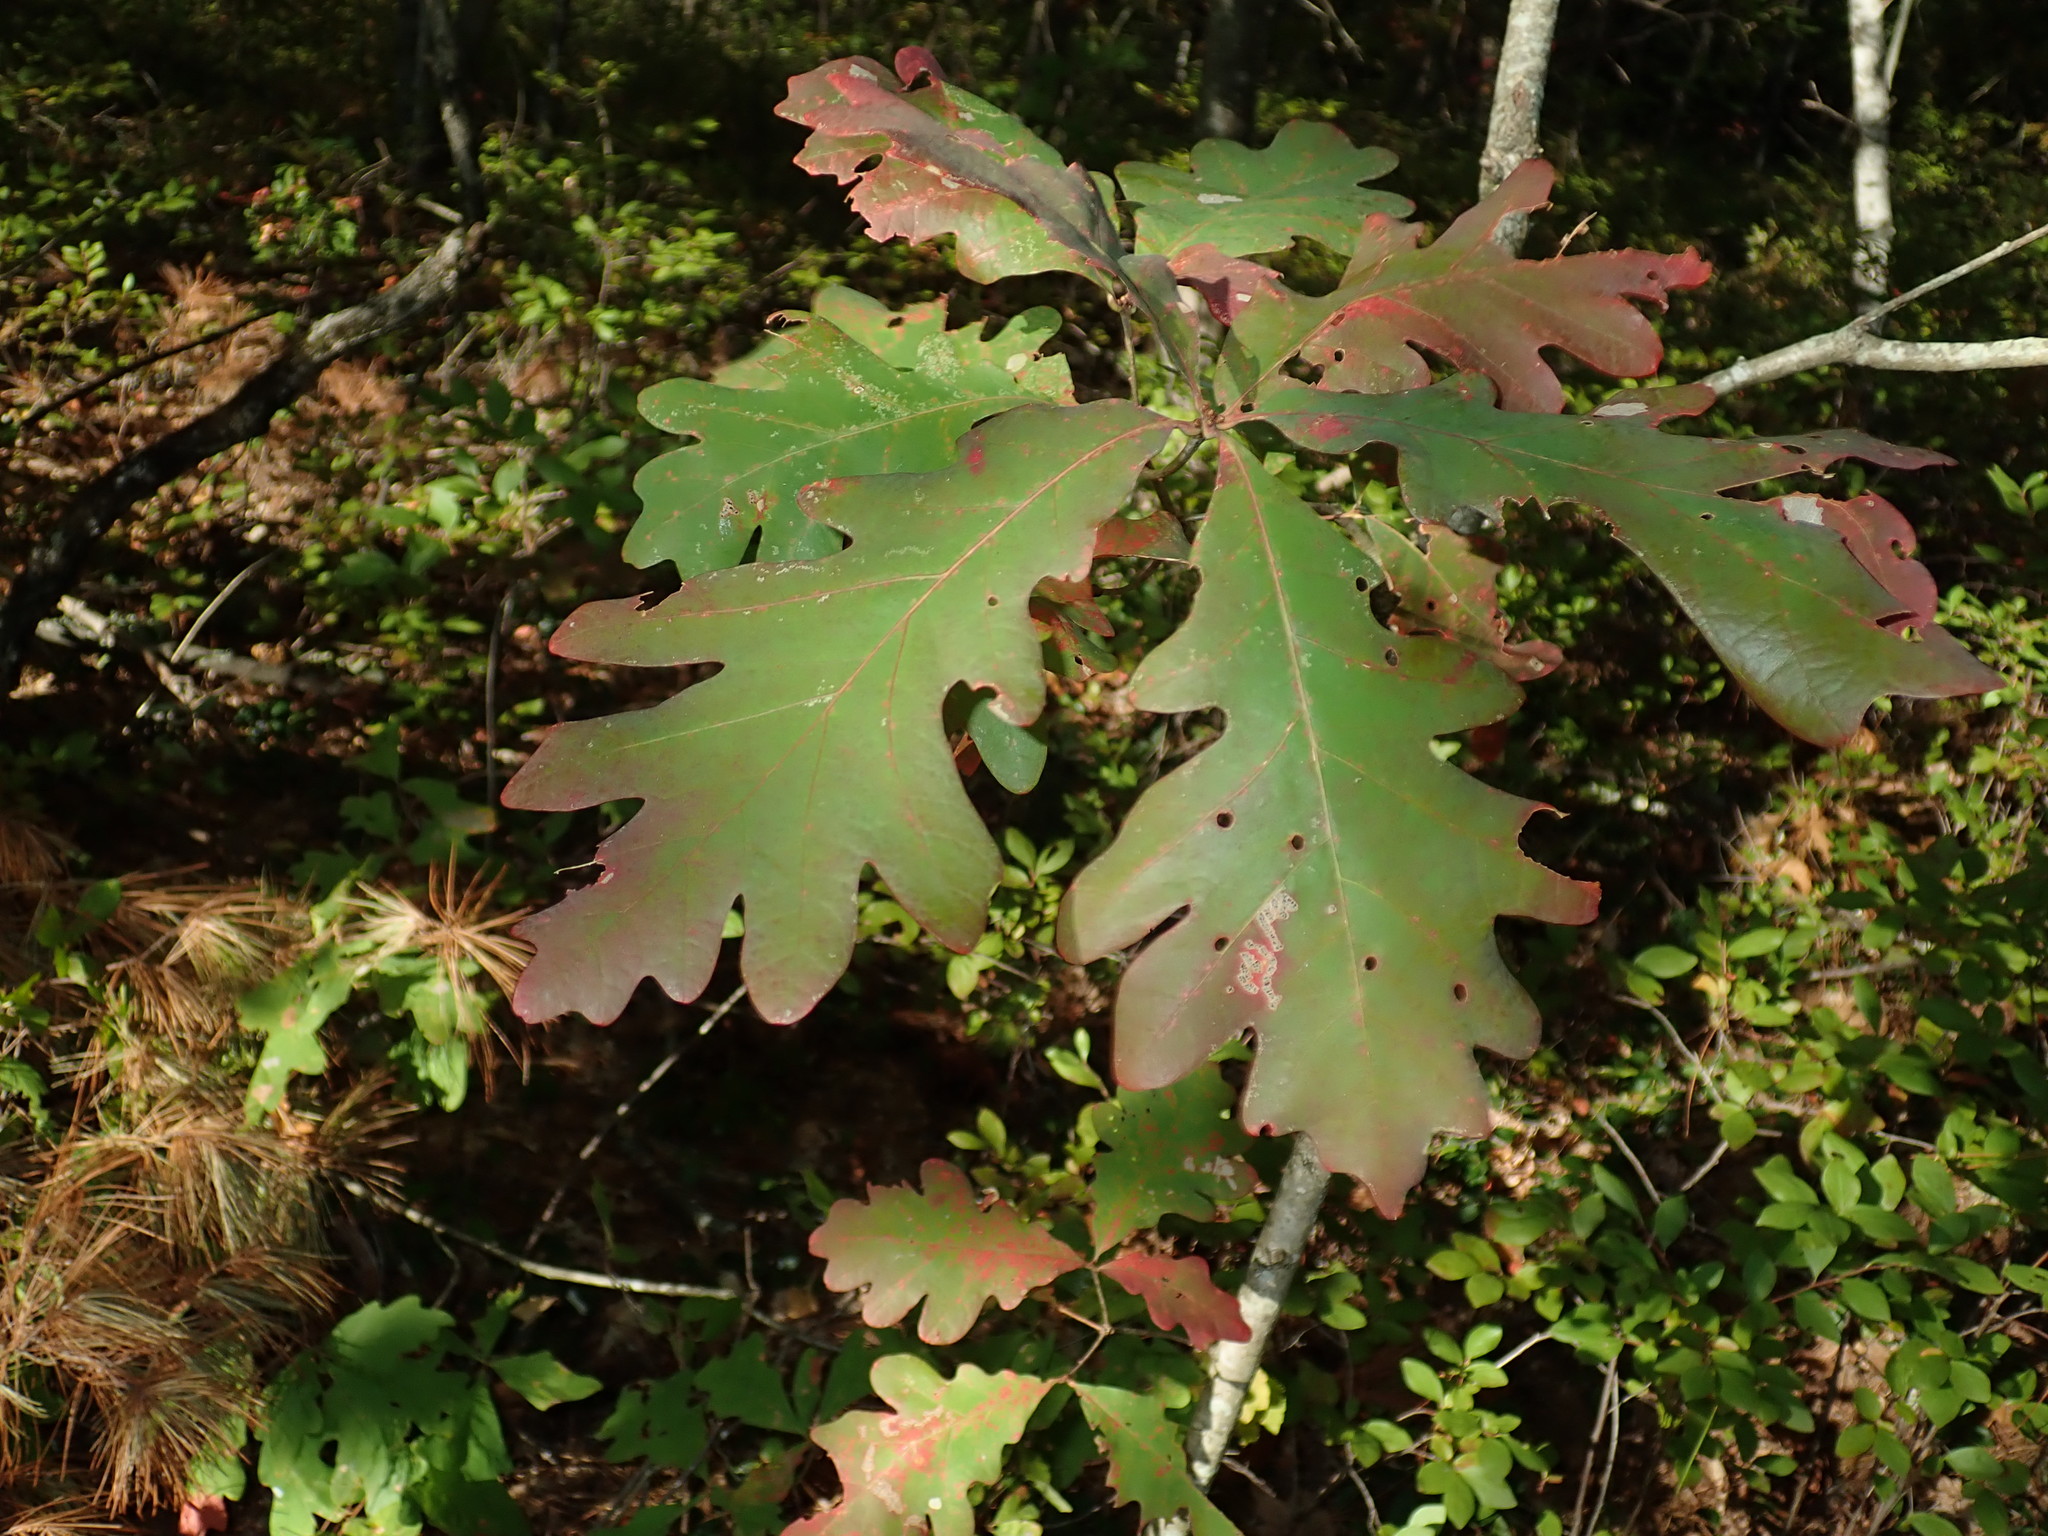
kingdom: Plantae
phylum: Tracheophyta
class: Magnoliopsida
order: Fagales
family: Fagaceae
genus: Quercus
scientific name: Quercus alba
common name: White oak
